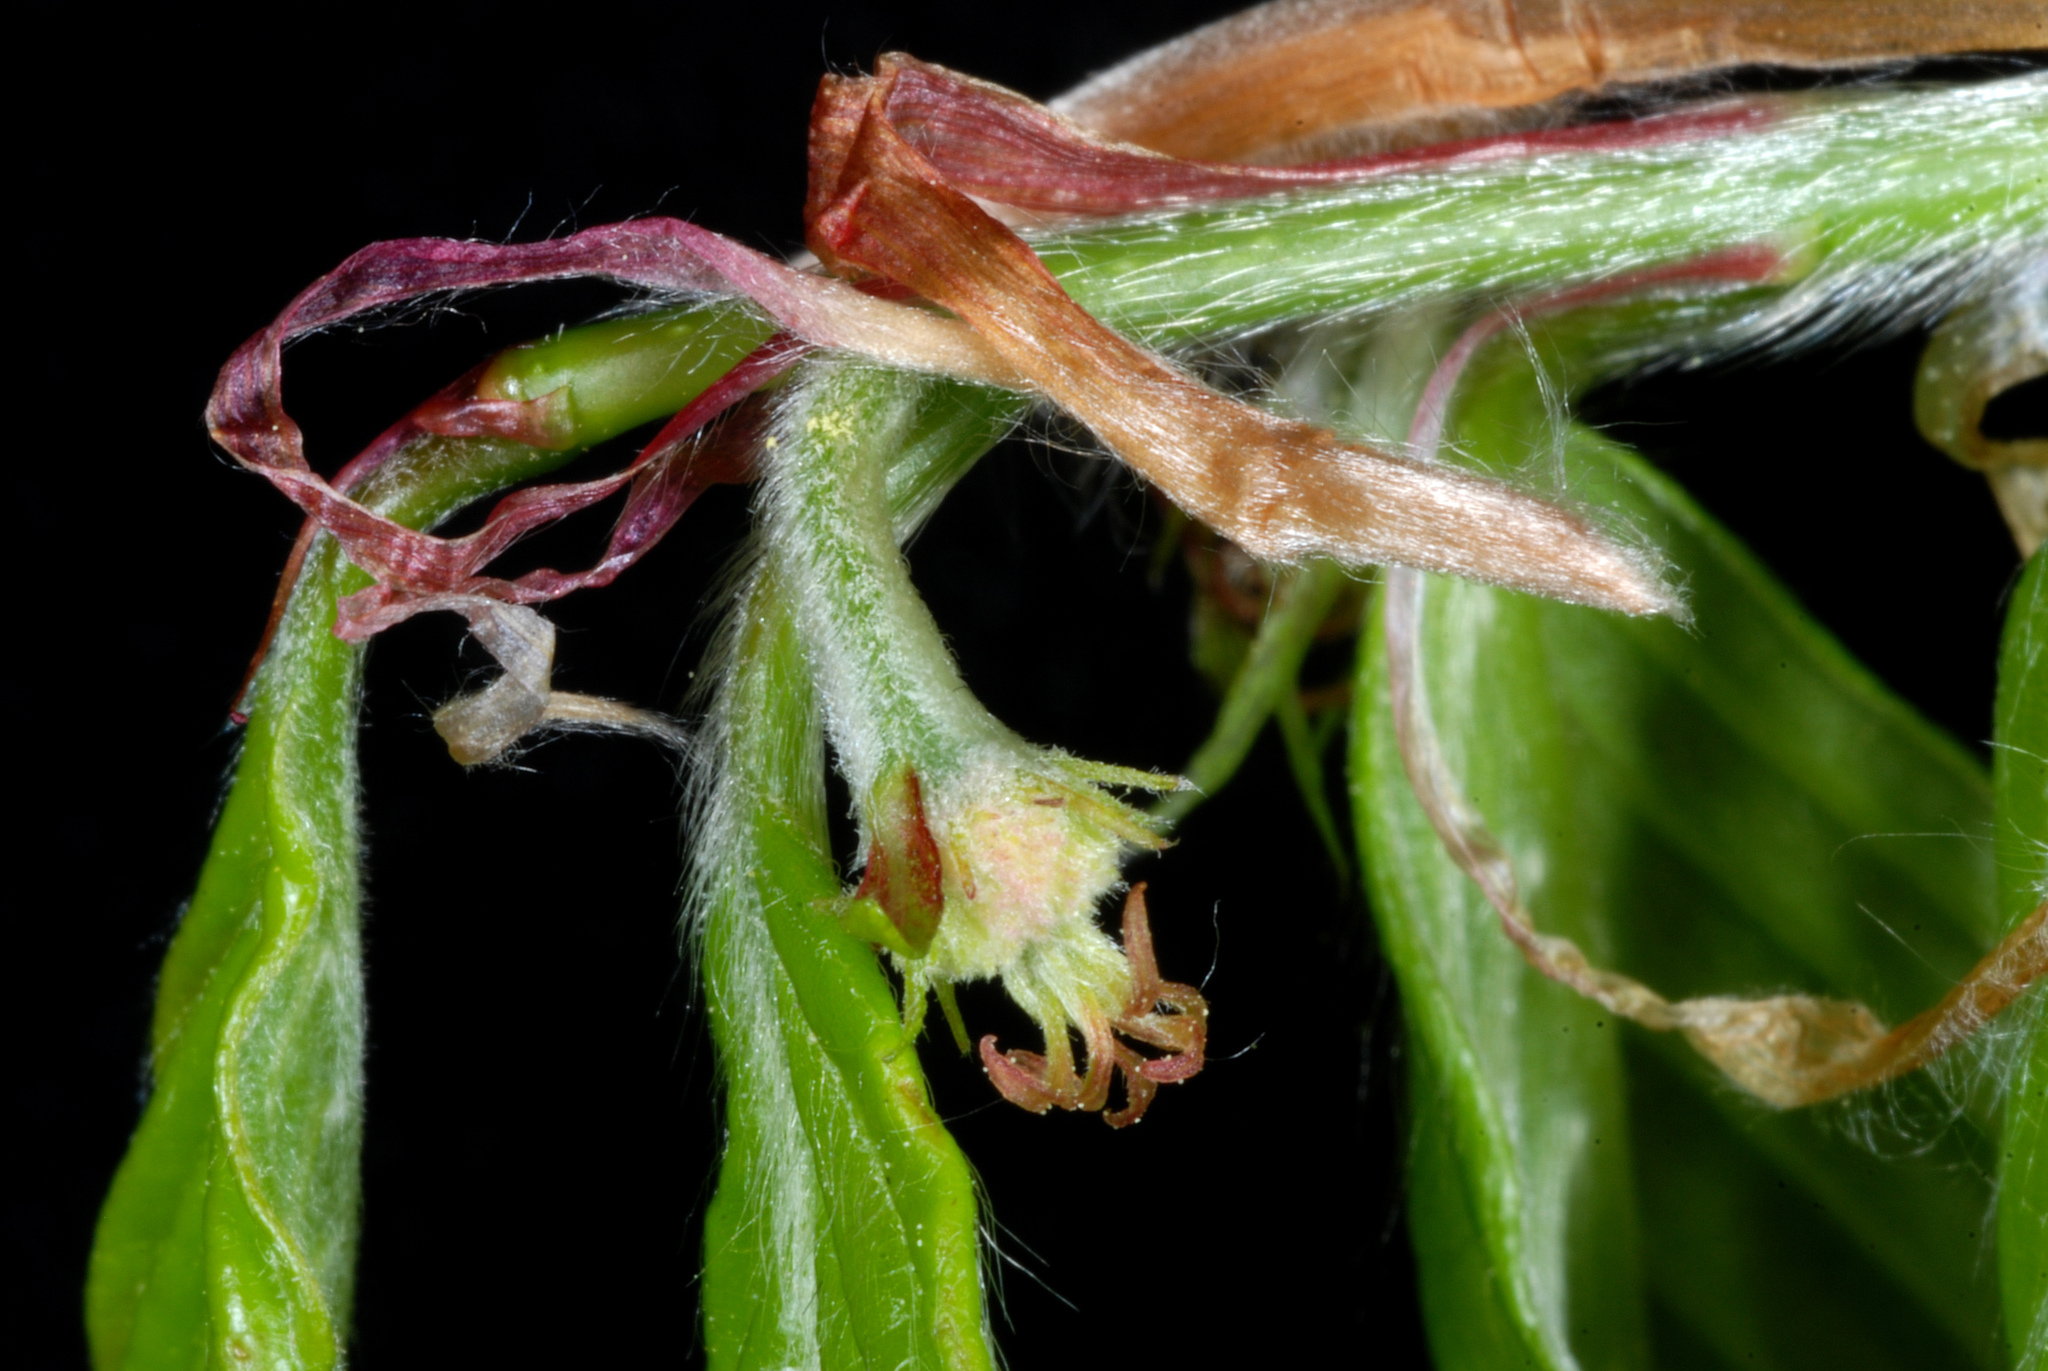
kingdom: Plantae
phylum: Tracheophyta
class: Magnoliopsida
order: Fagales
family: Fagaceae
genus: Fagus
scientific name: Fagus grandifolia
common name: American beech
